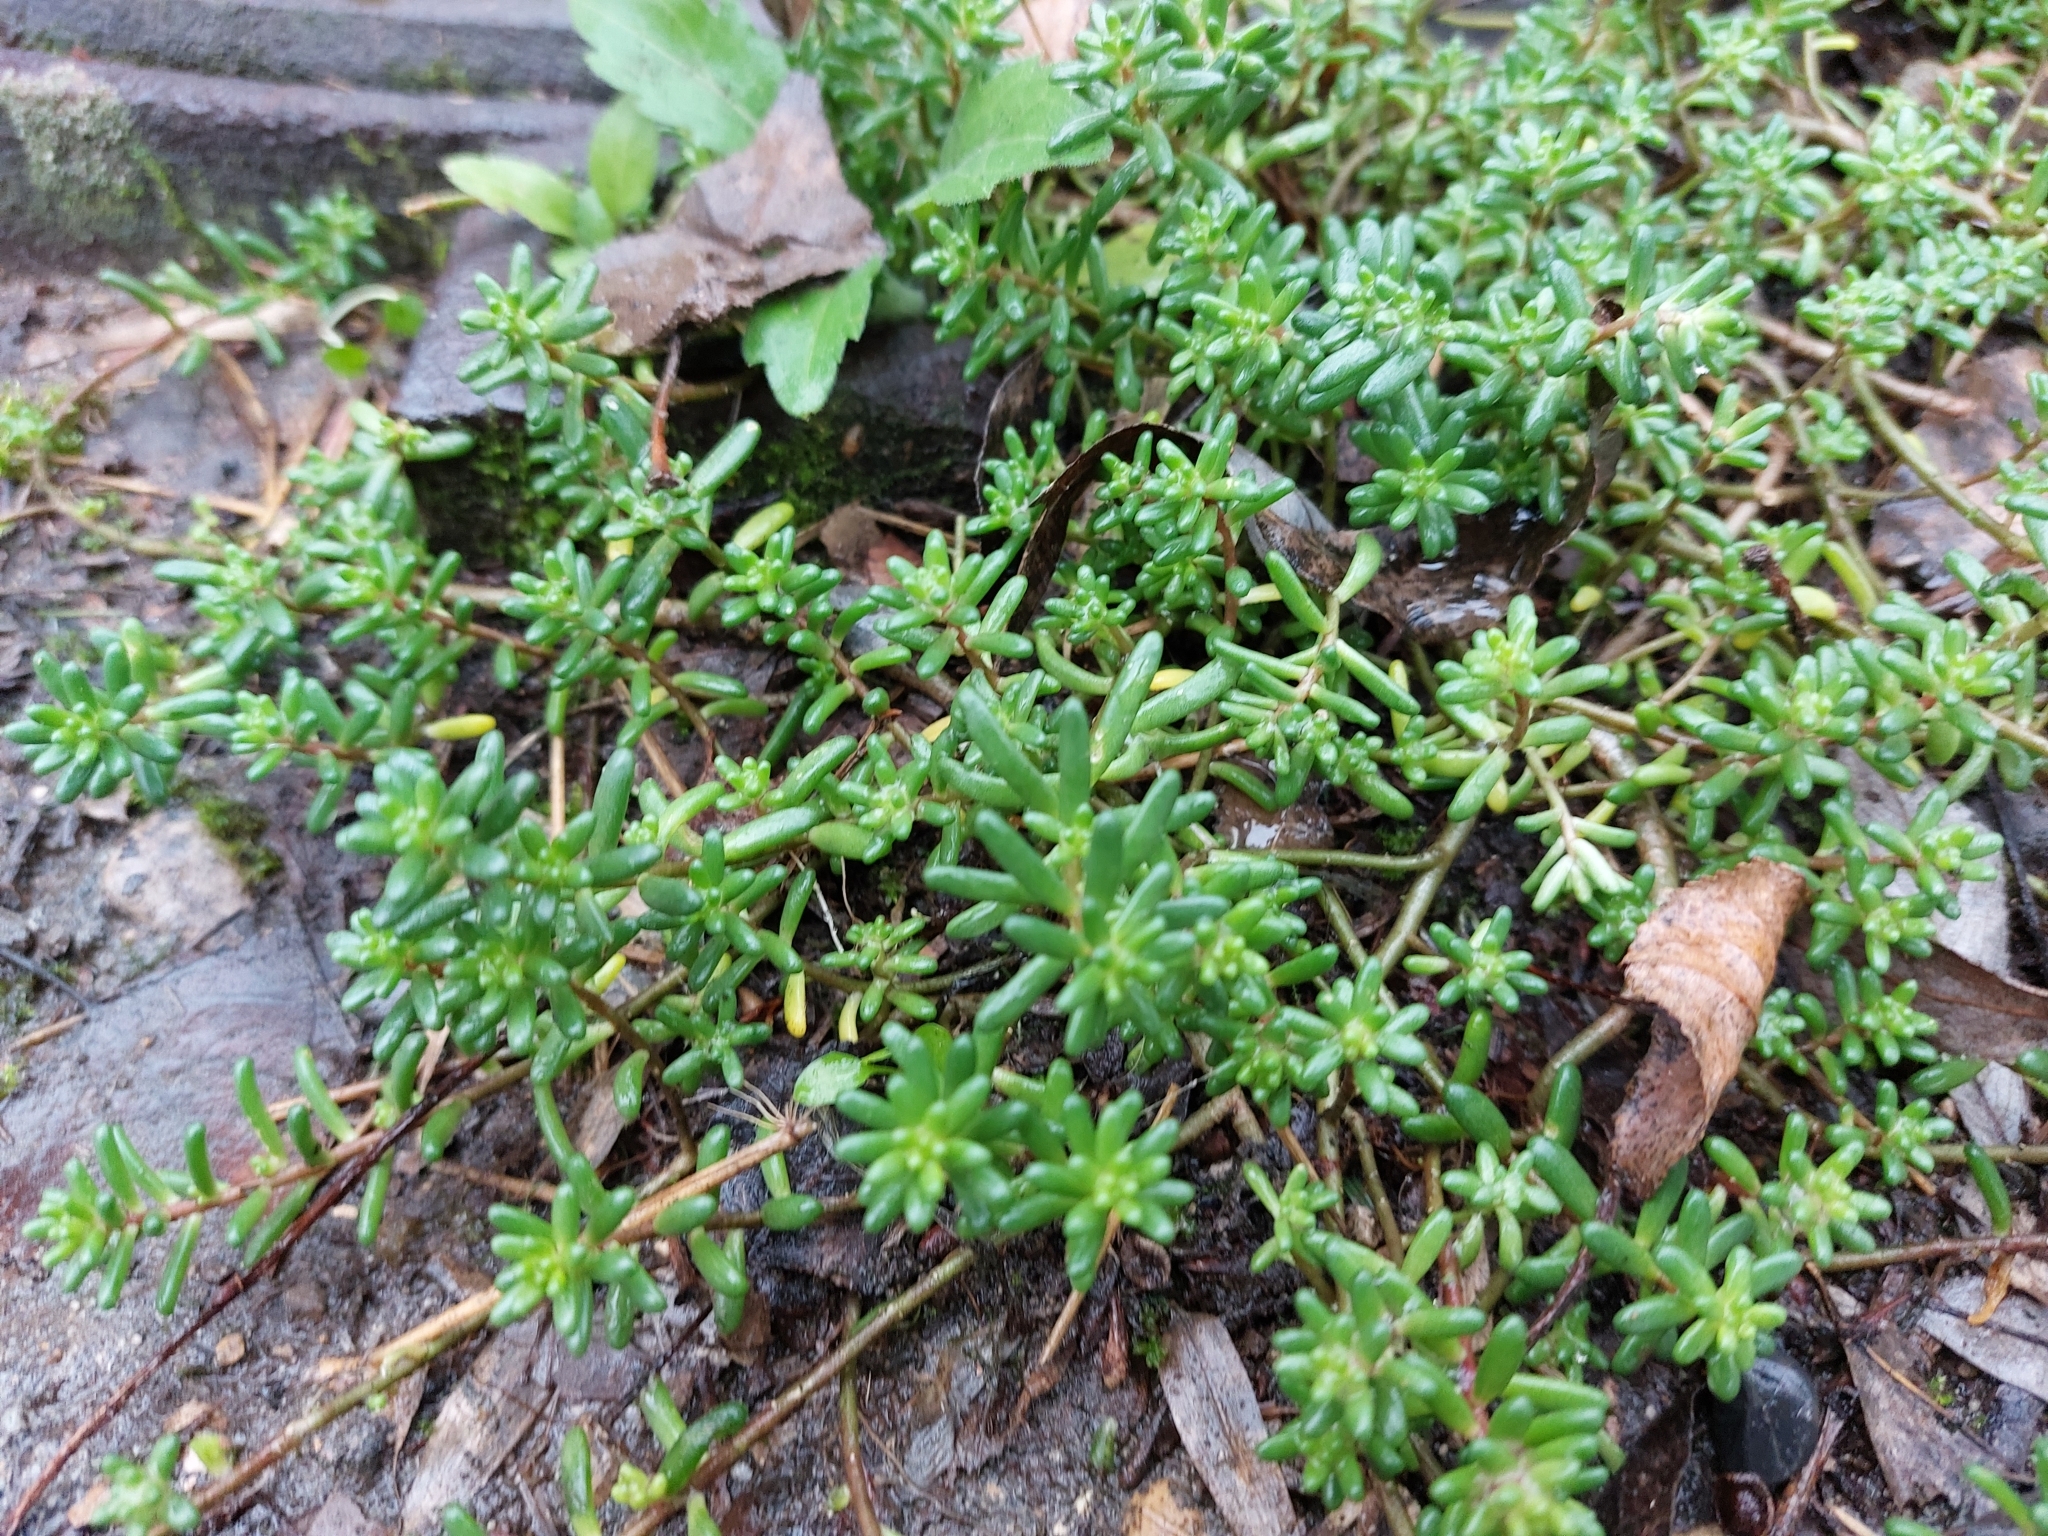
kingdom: Plantae
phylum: Tracheophyta
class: Magnoliopsida
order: Saxifragales
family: Crassulaceae
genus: Sedum
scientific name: Sedum album
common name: White stonecrop
